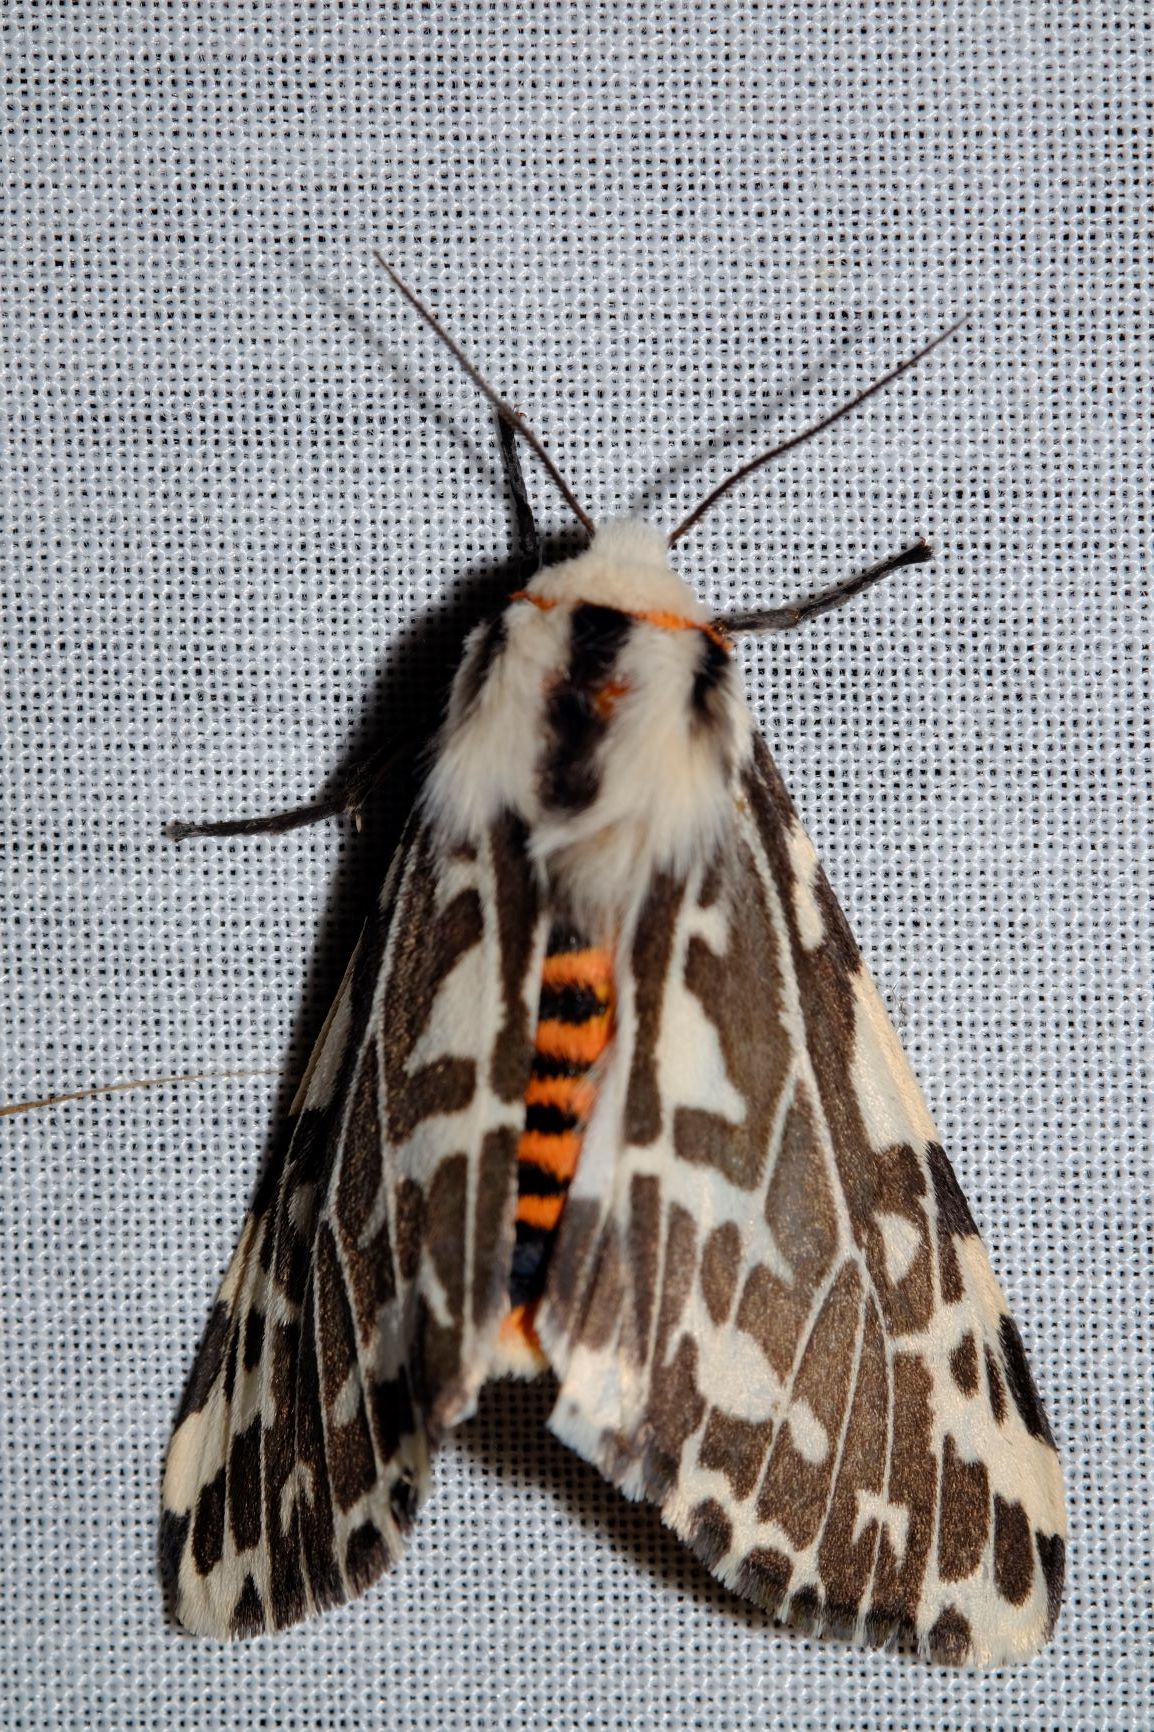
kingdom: Animalia
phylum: Arthropoda
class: Insecta
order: Lepidoptera
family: Erebidae
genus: Ardices
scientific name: Ardices glatignyi
